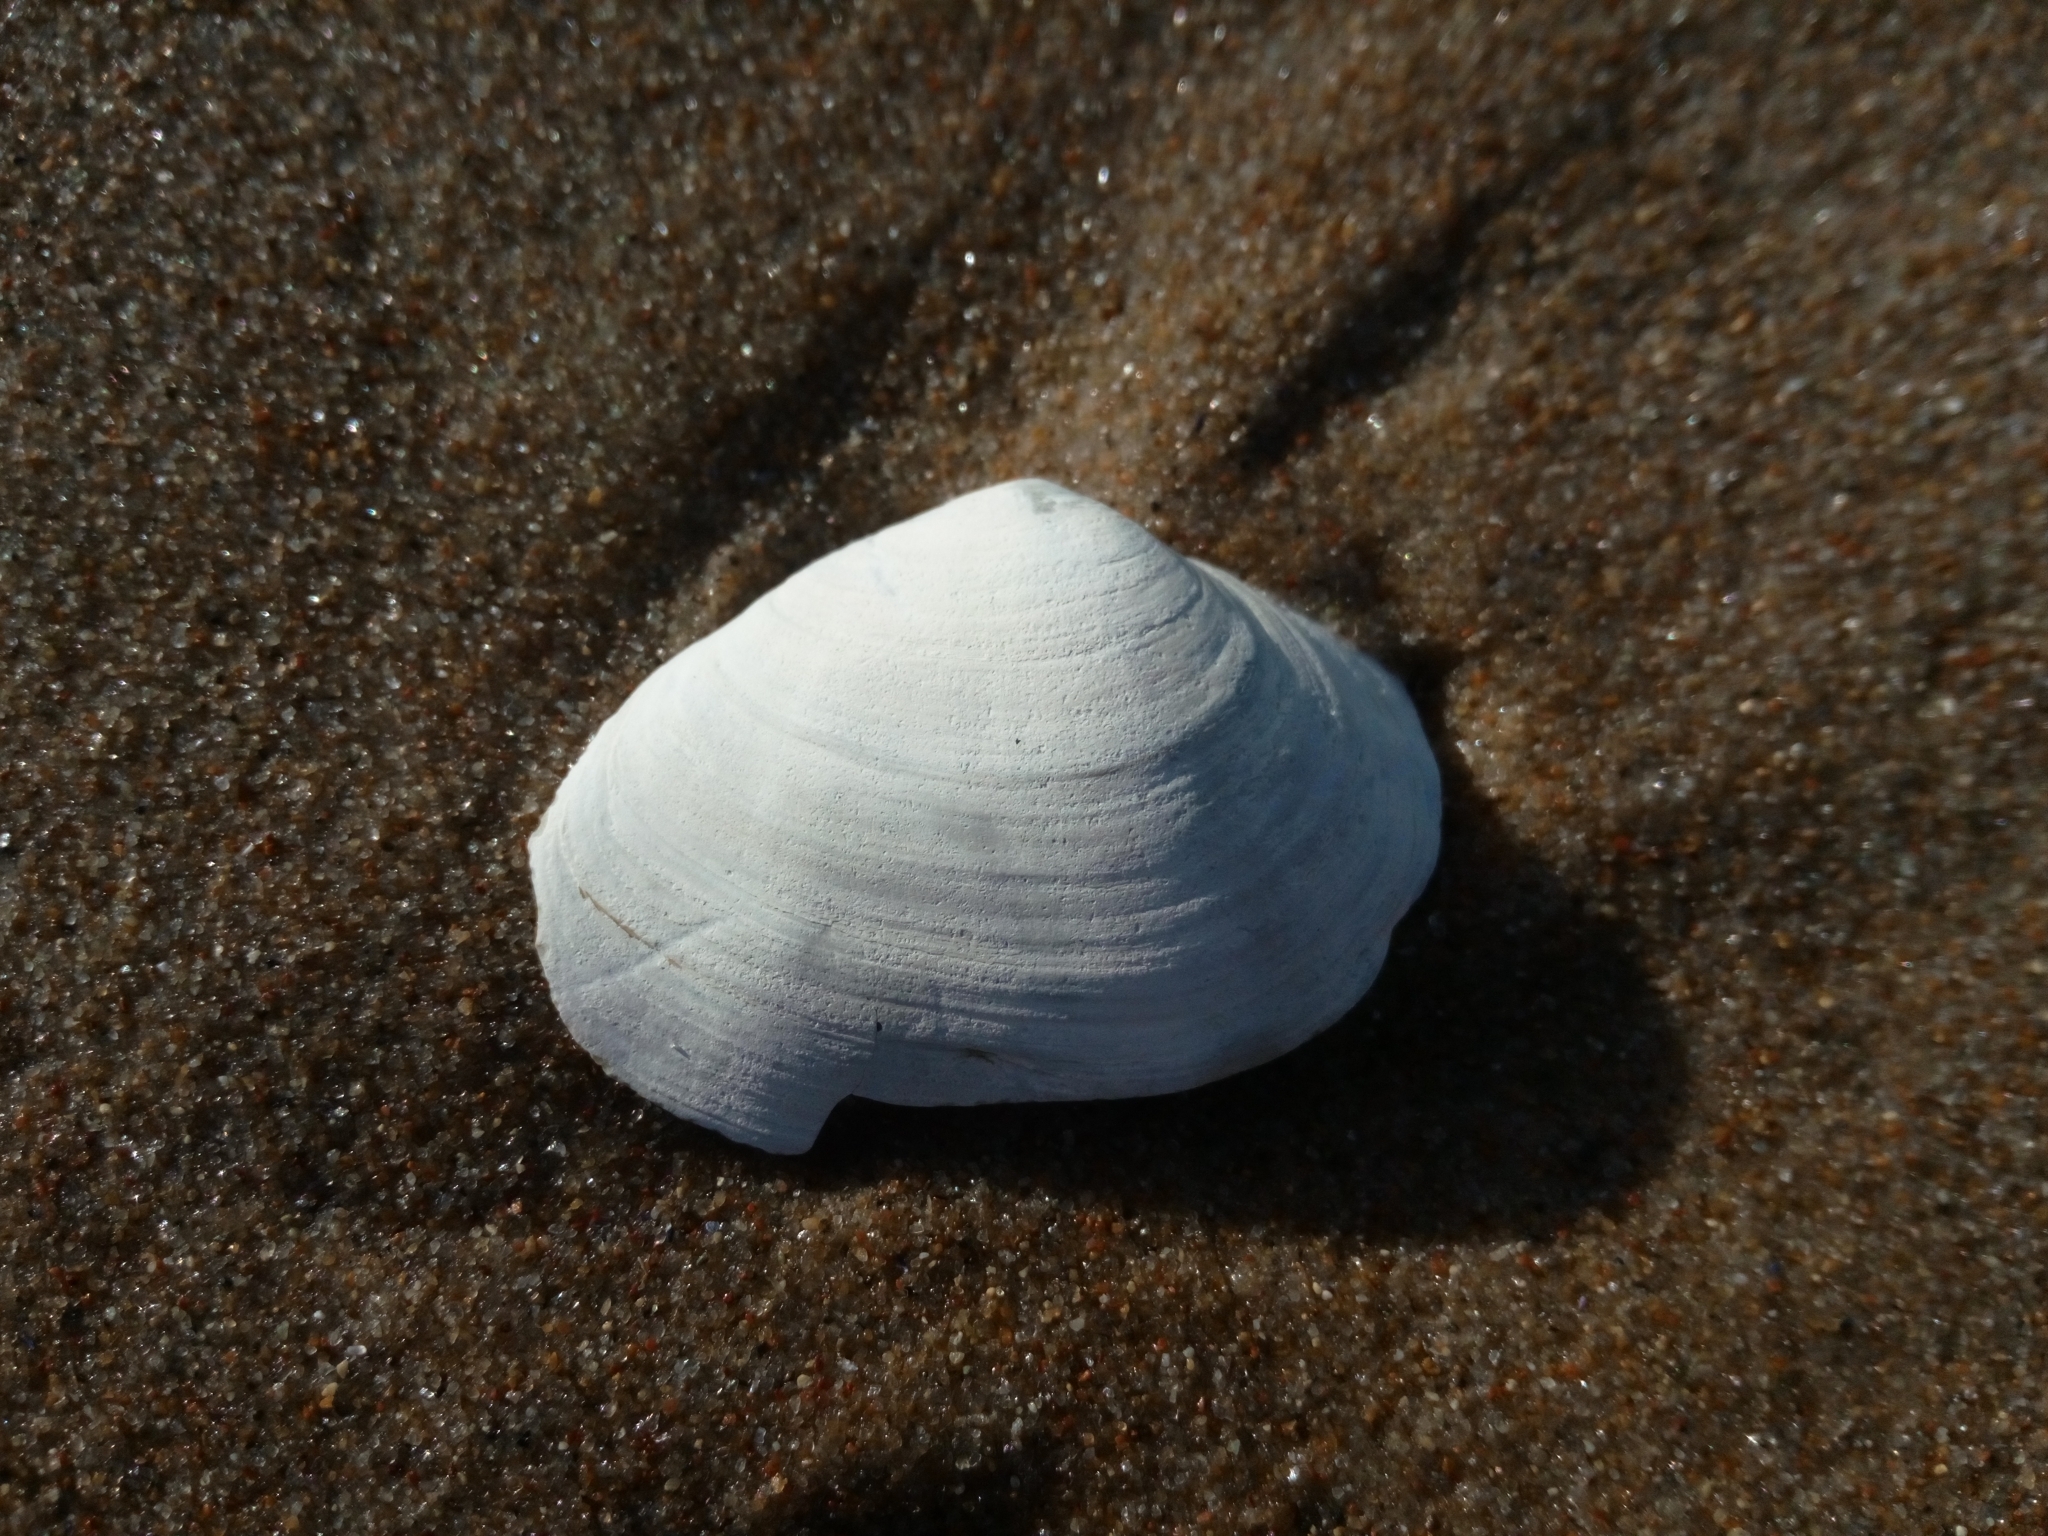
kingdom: Animalia
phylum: Mollusca
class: Bivalvia
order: Myida
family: Myidae
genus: Mya
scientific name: Mya arenaria
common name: Soft-shelled clam
